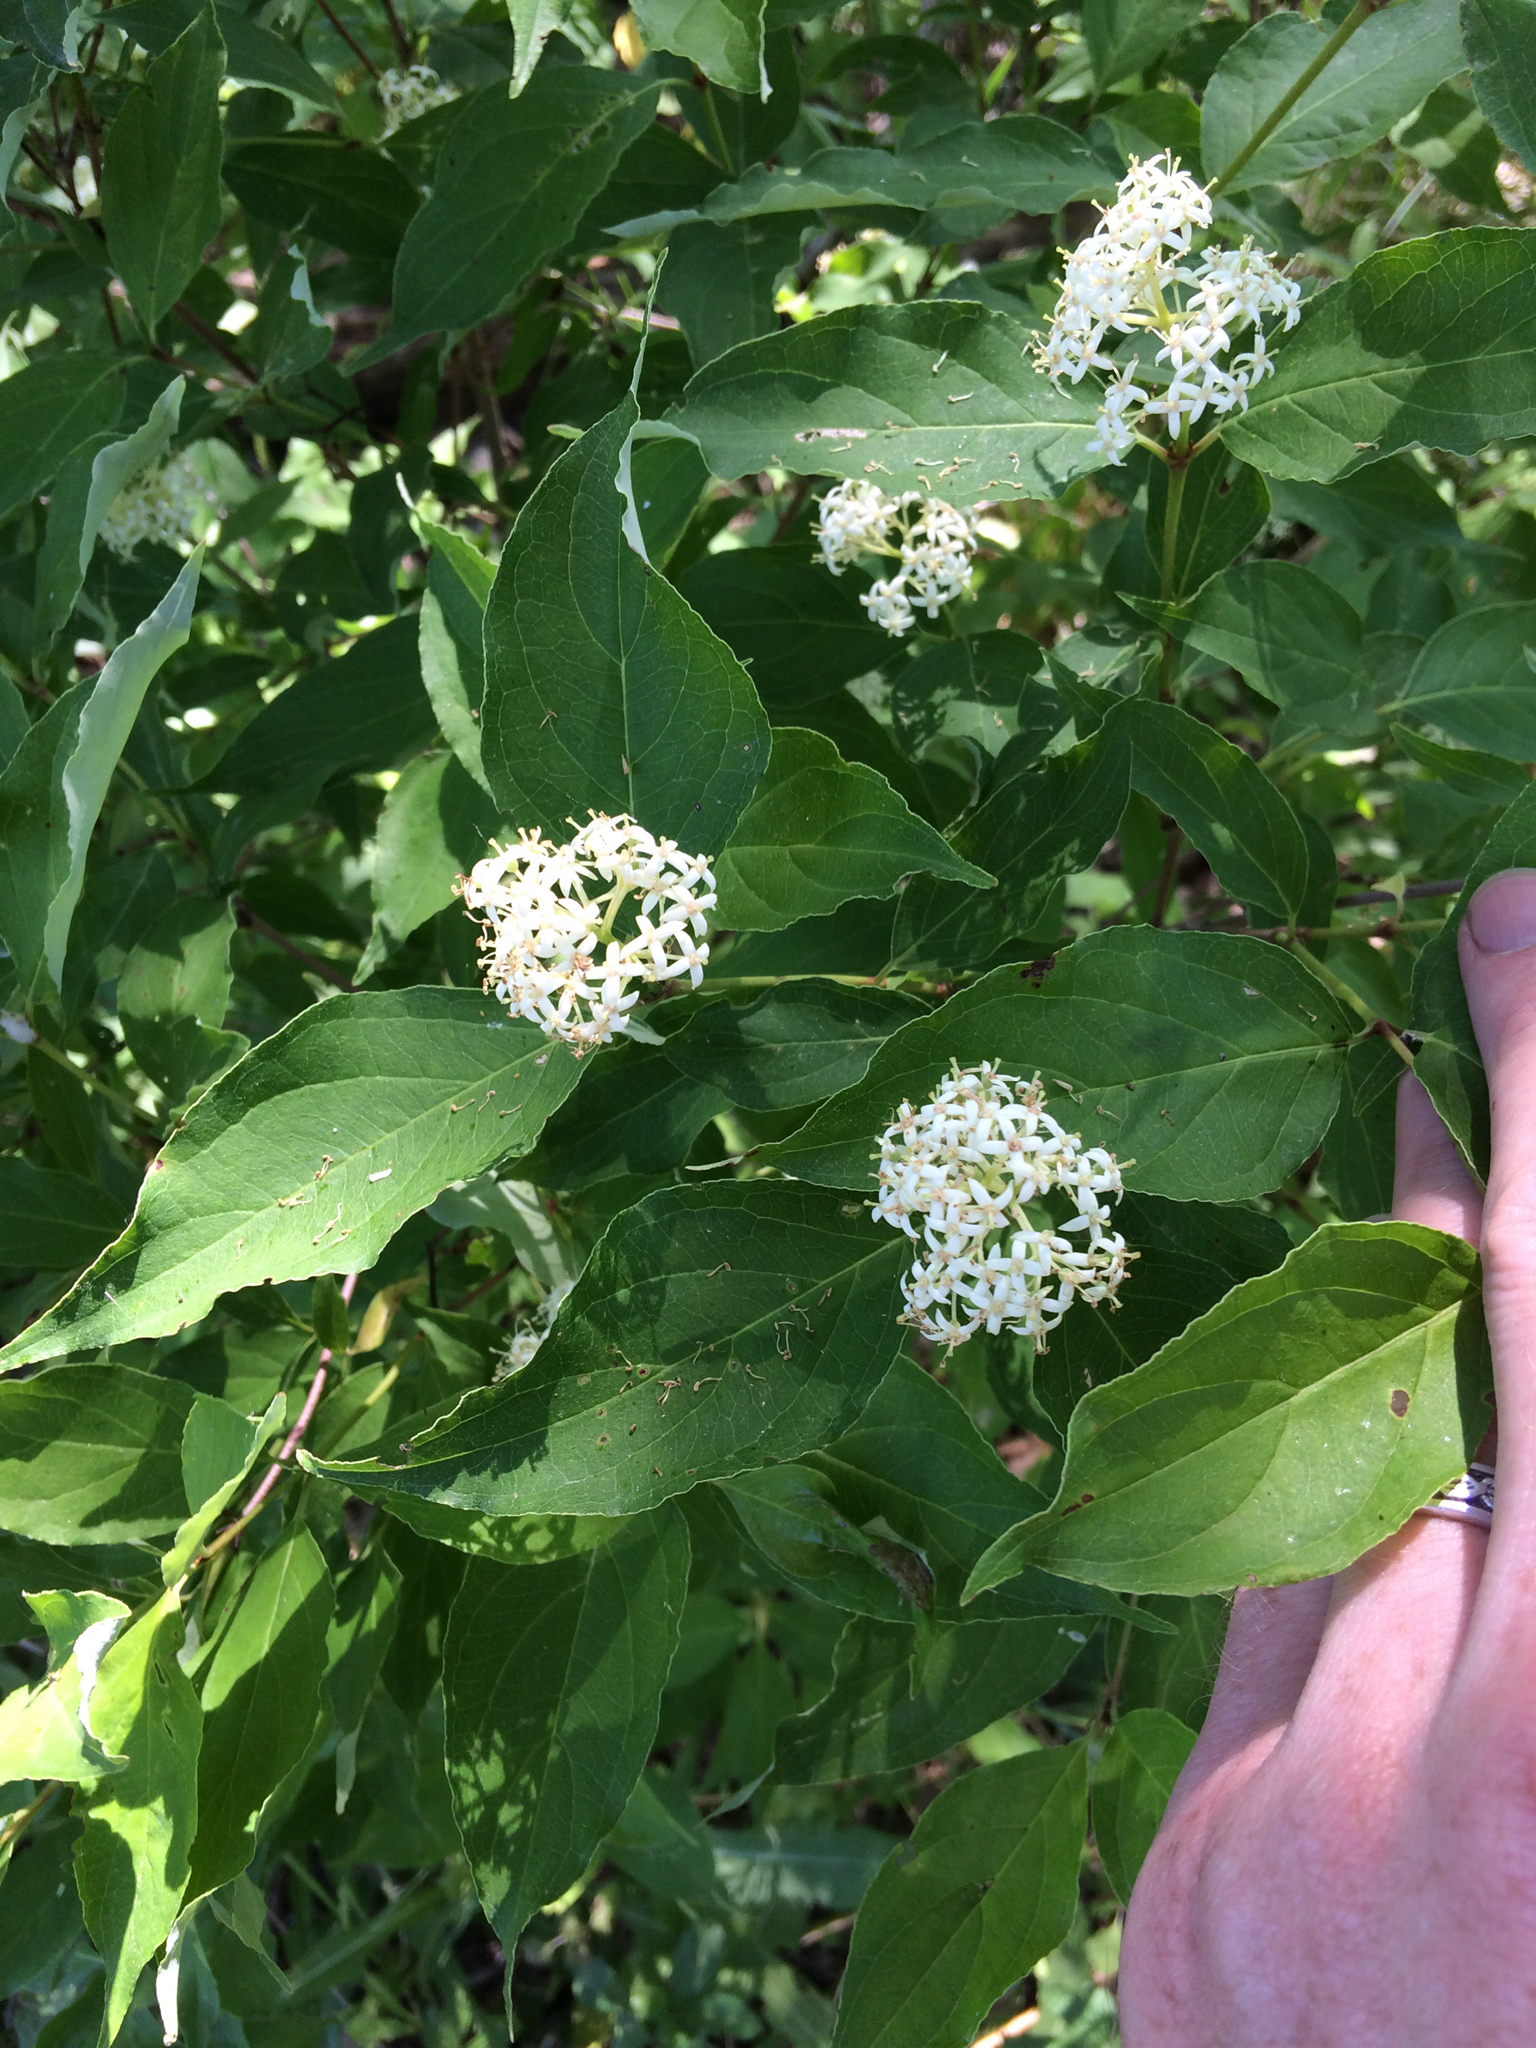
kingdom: Plantae
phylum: Tracheophyta
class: Magnoliopsida
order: Cornales
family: Cornaceae
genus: Cornus
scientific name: Cornus racemosa
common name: Panicled dogwood
